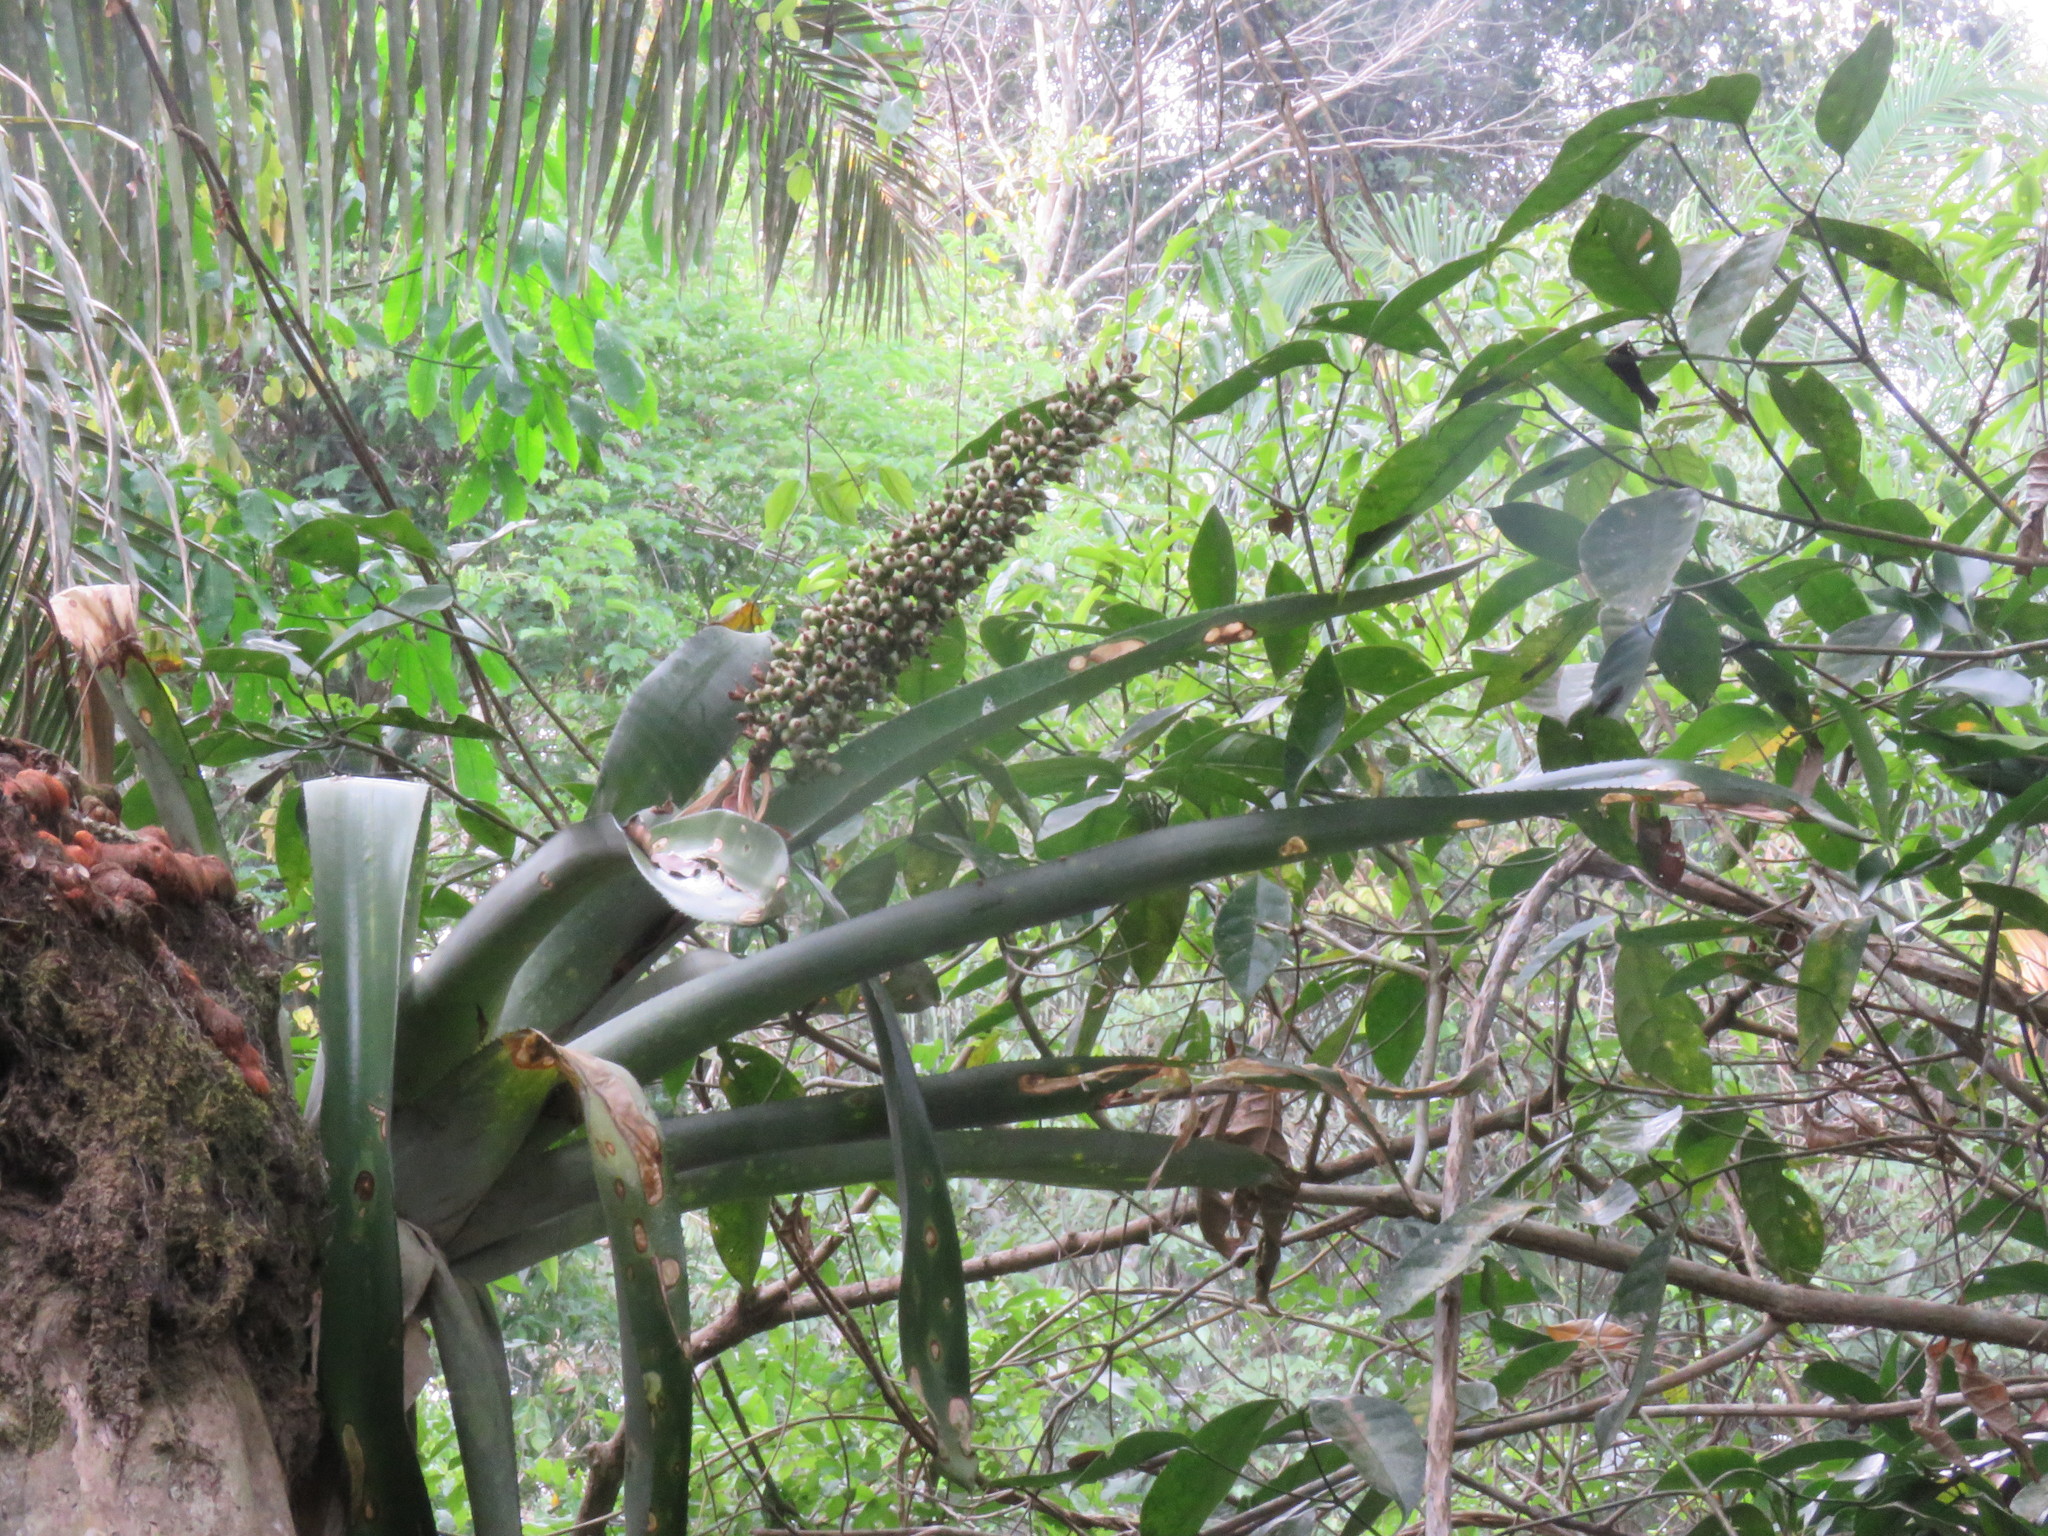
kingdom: Plantae
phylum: Tracheophyta
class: Liliopsida
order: Poales
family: Bromeliaceae
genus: Aechmea
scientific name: Aechmea castelnavii
